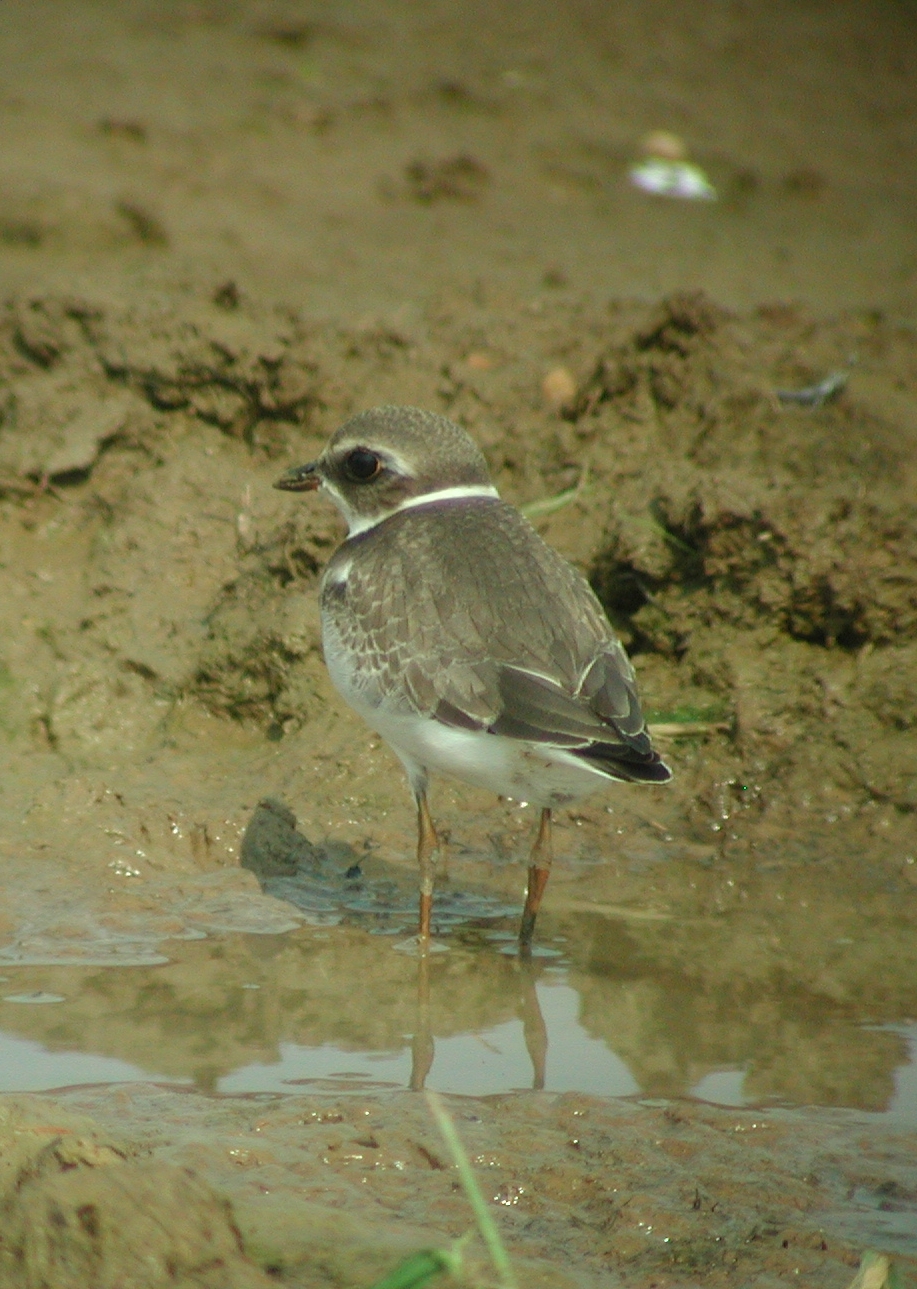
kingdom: Animalia
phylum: Chordata
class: Aves
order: Charadriiformes
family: Charadriidae
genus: Charadrius
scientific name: Charadrius semipalmatus
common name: Semipalmated plover
